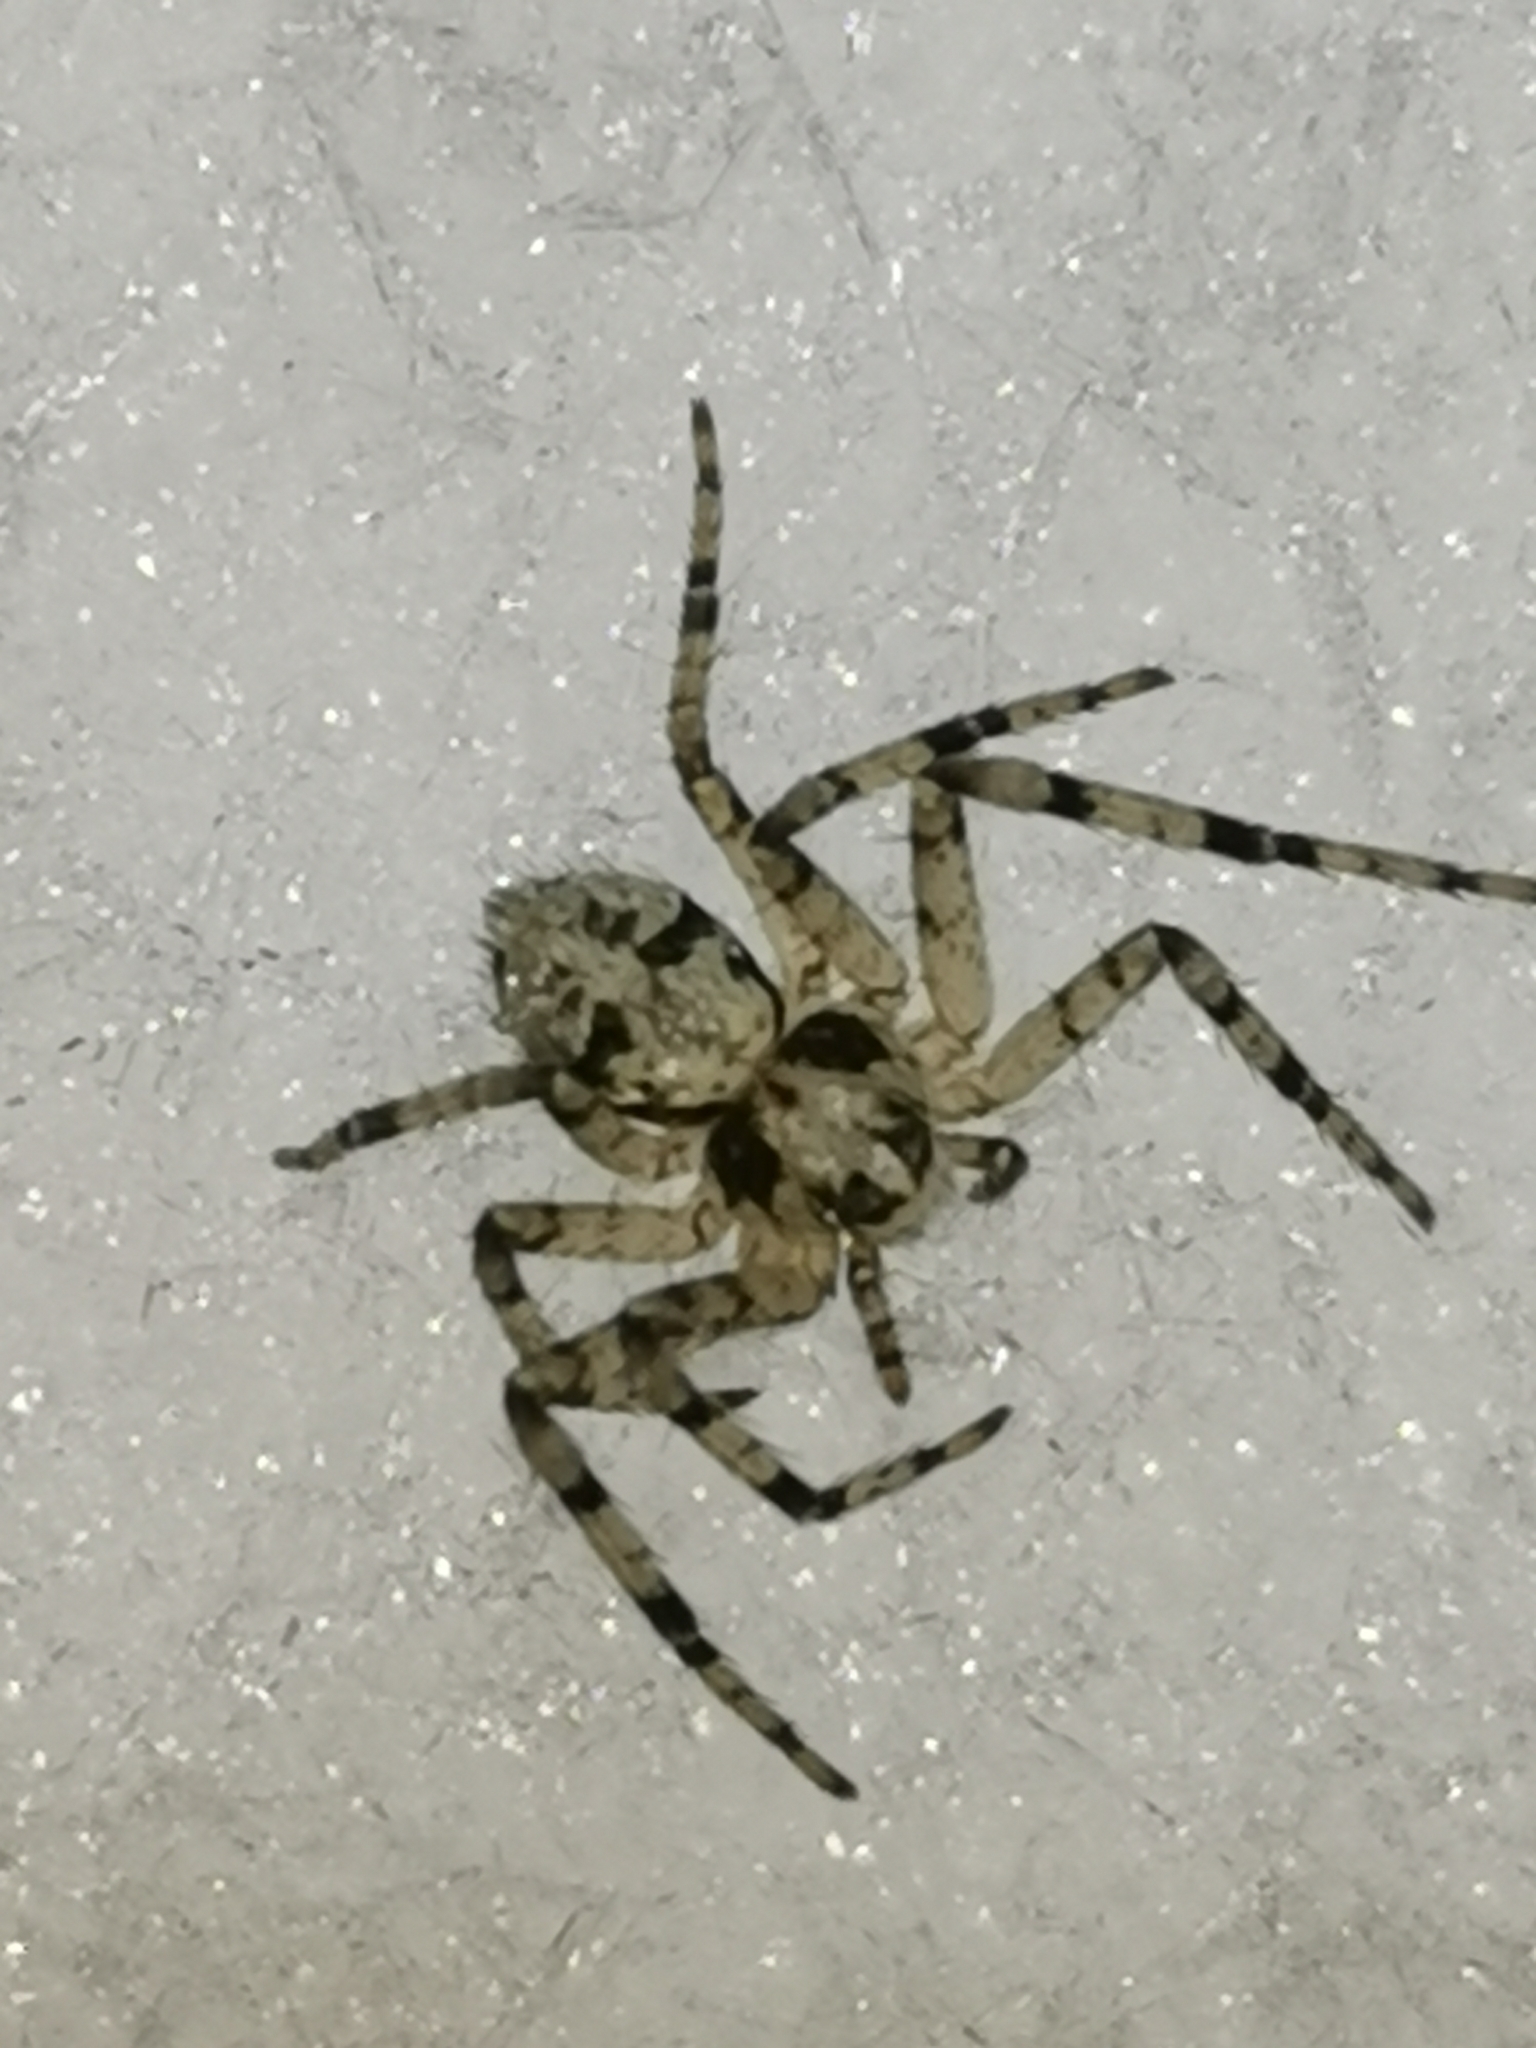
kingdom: Animalia
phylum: Arthropoda
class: Arachnida
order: Araneae
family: Philodromidae
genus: Philodromus
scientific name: Philodromus margaritatus
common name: Lichen running-spider
